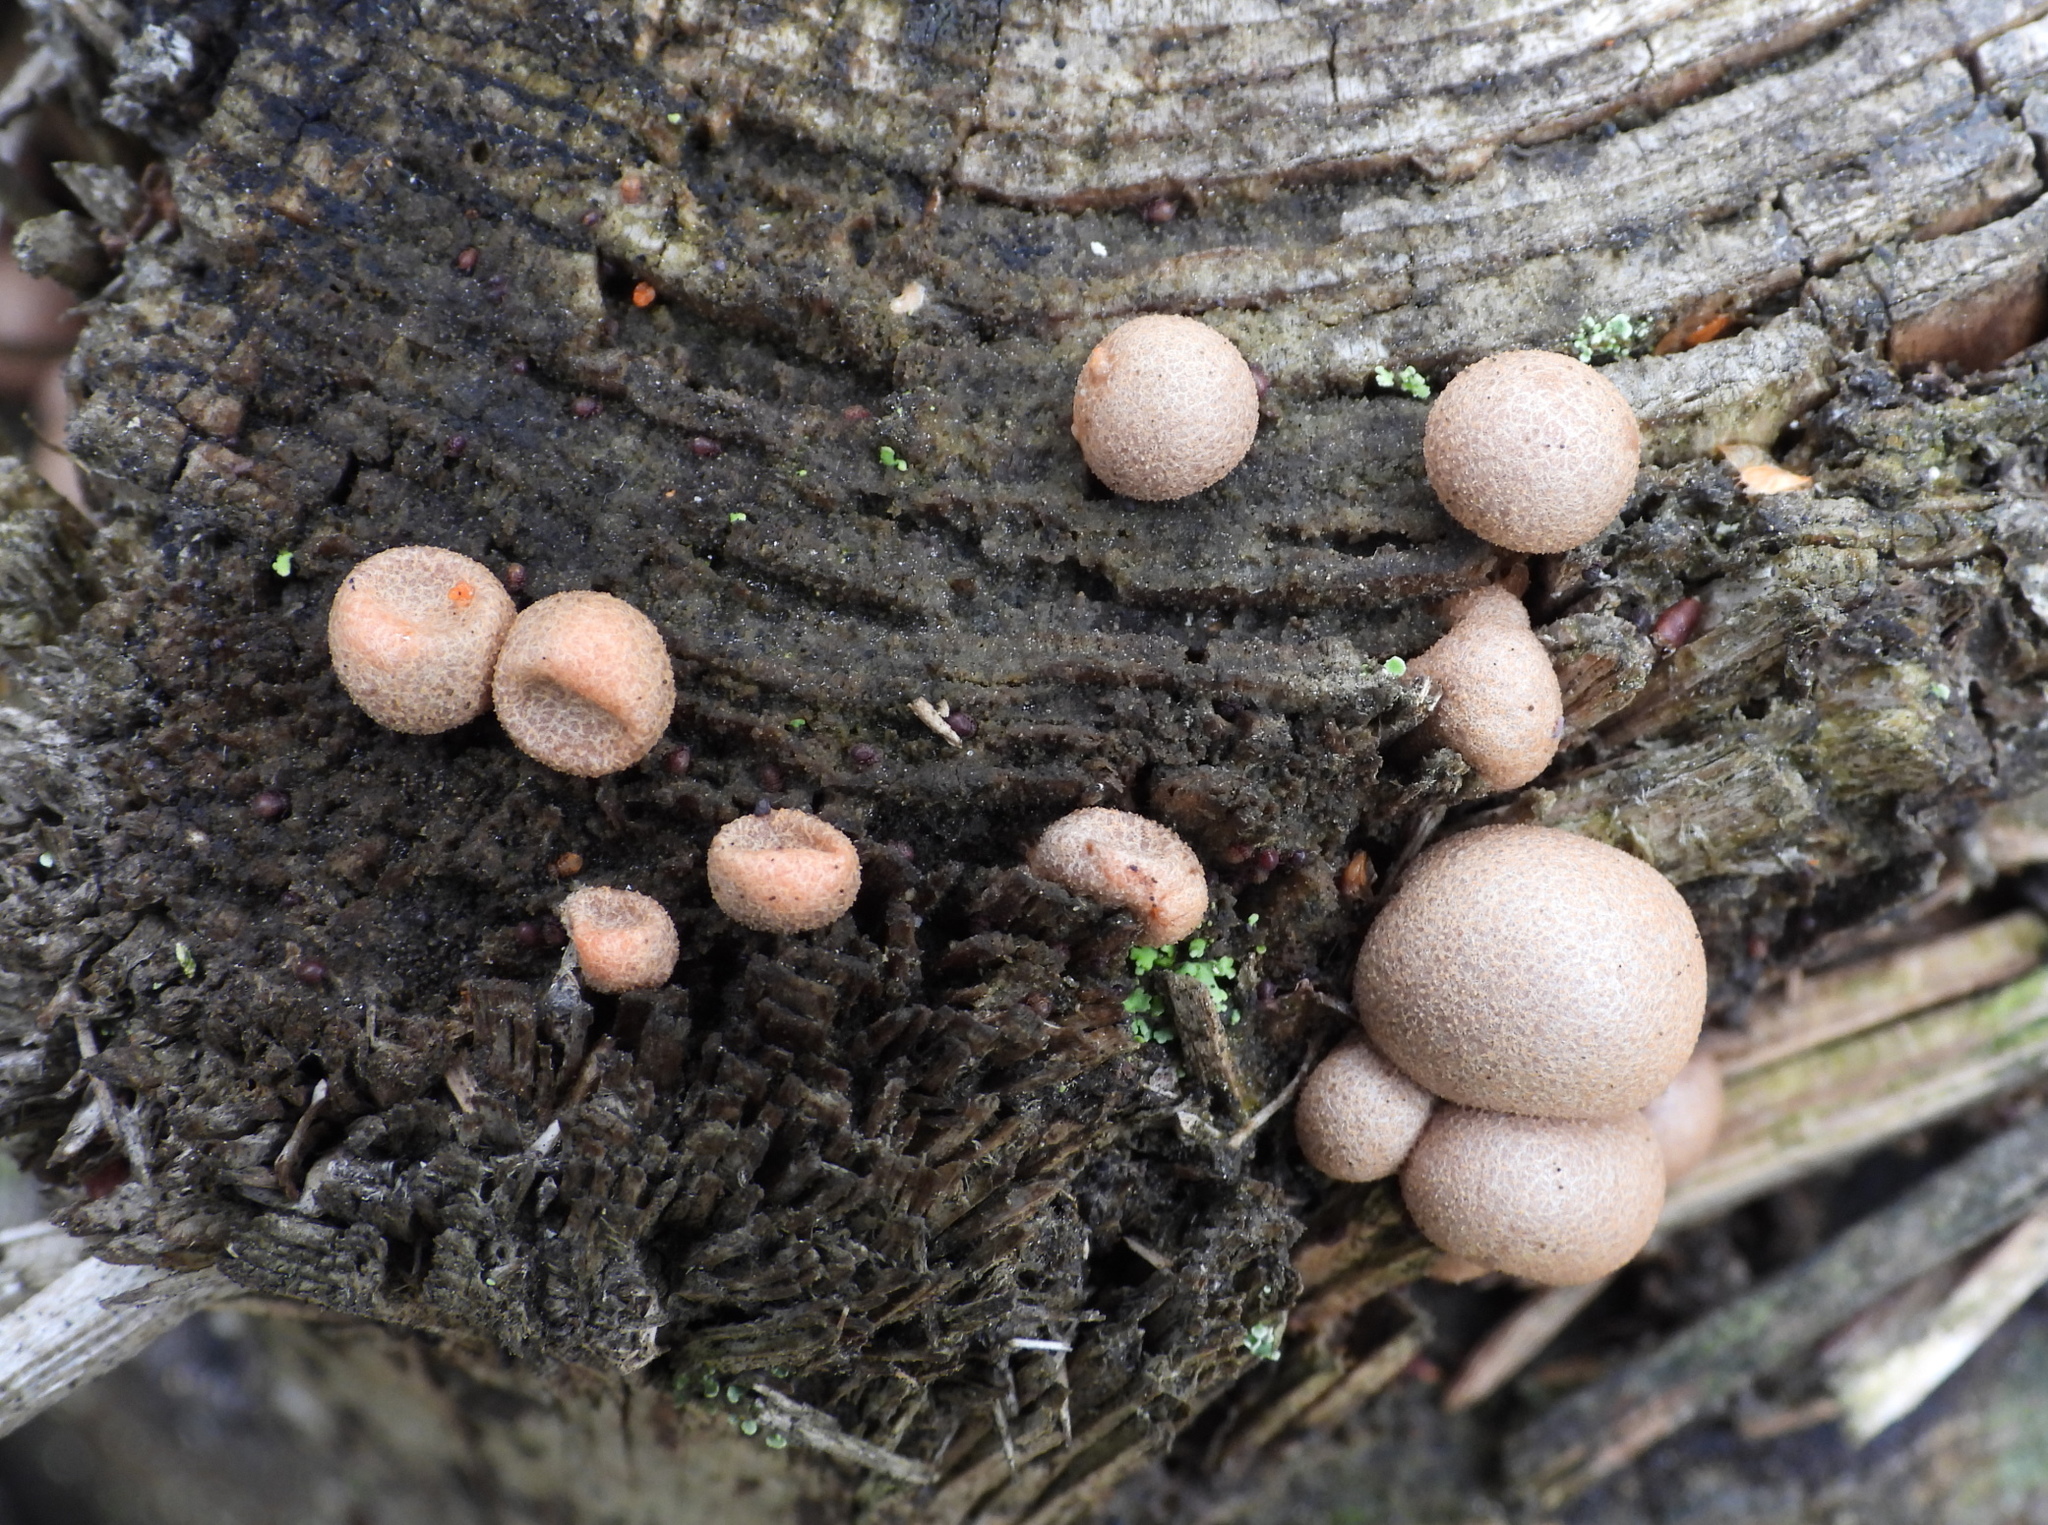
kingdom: Protozoa
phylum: Mycetozoa
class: Myxomycetes
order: Cribrariales
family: Tubiferaceae
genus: Lycogala
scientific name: Lycogala epidendrum
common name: Wolf's milk
